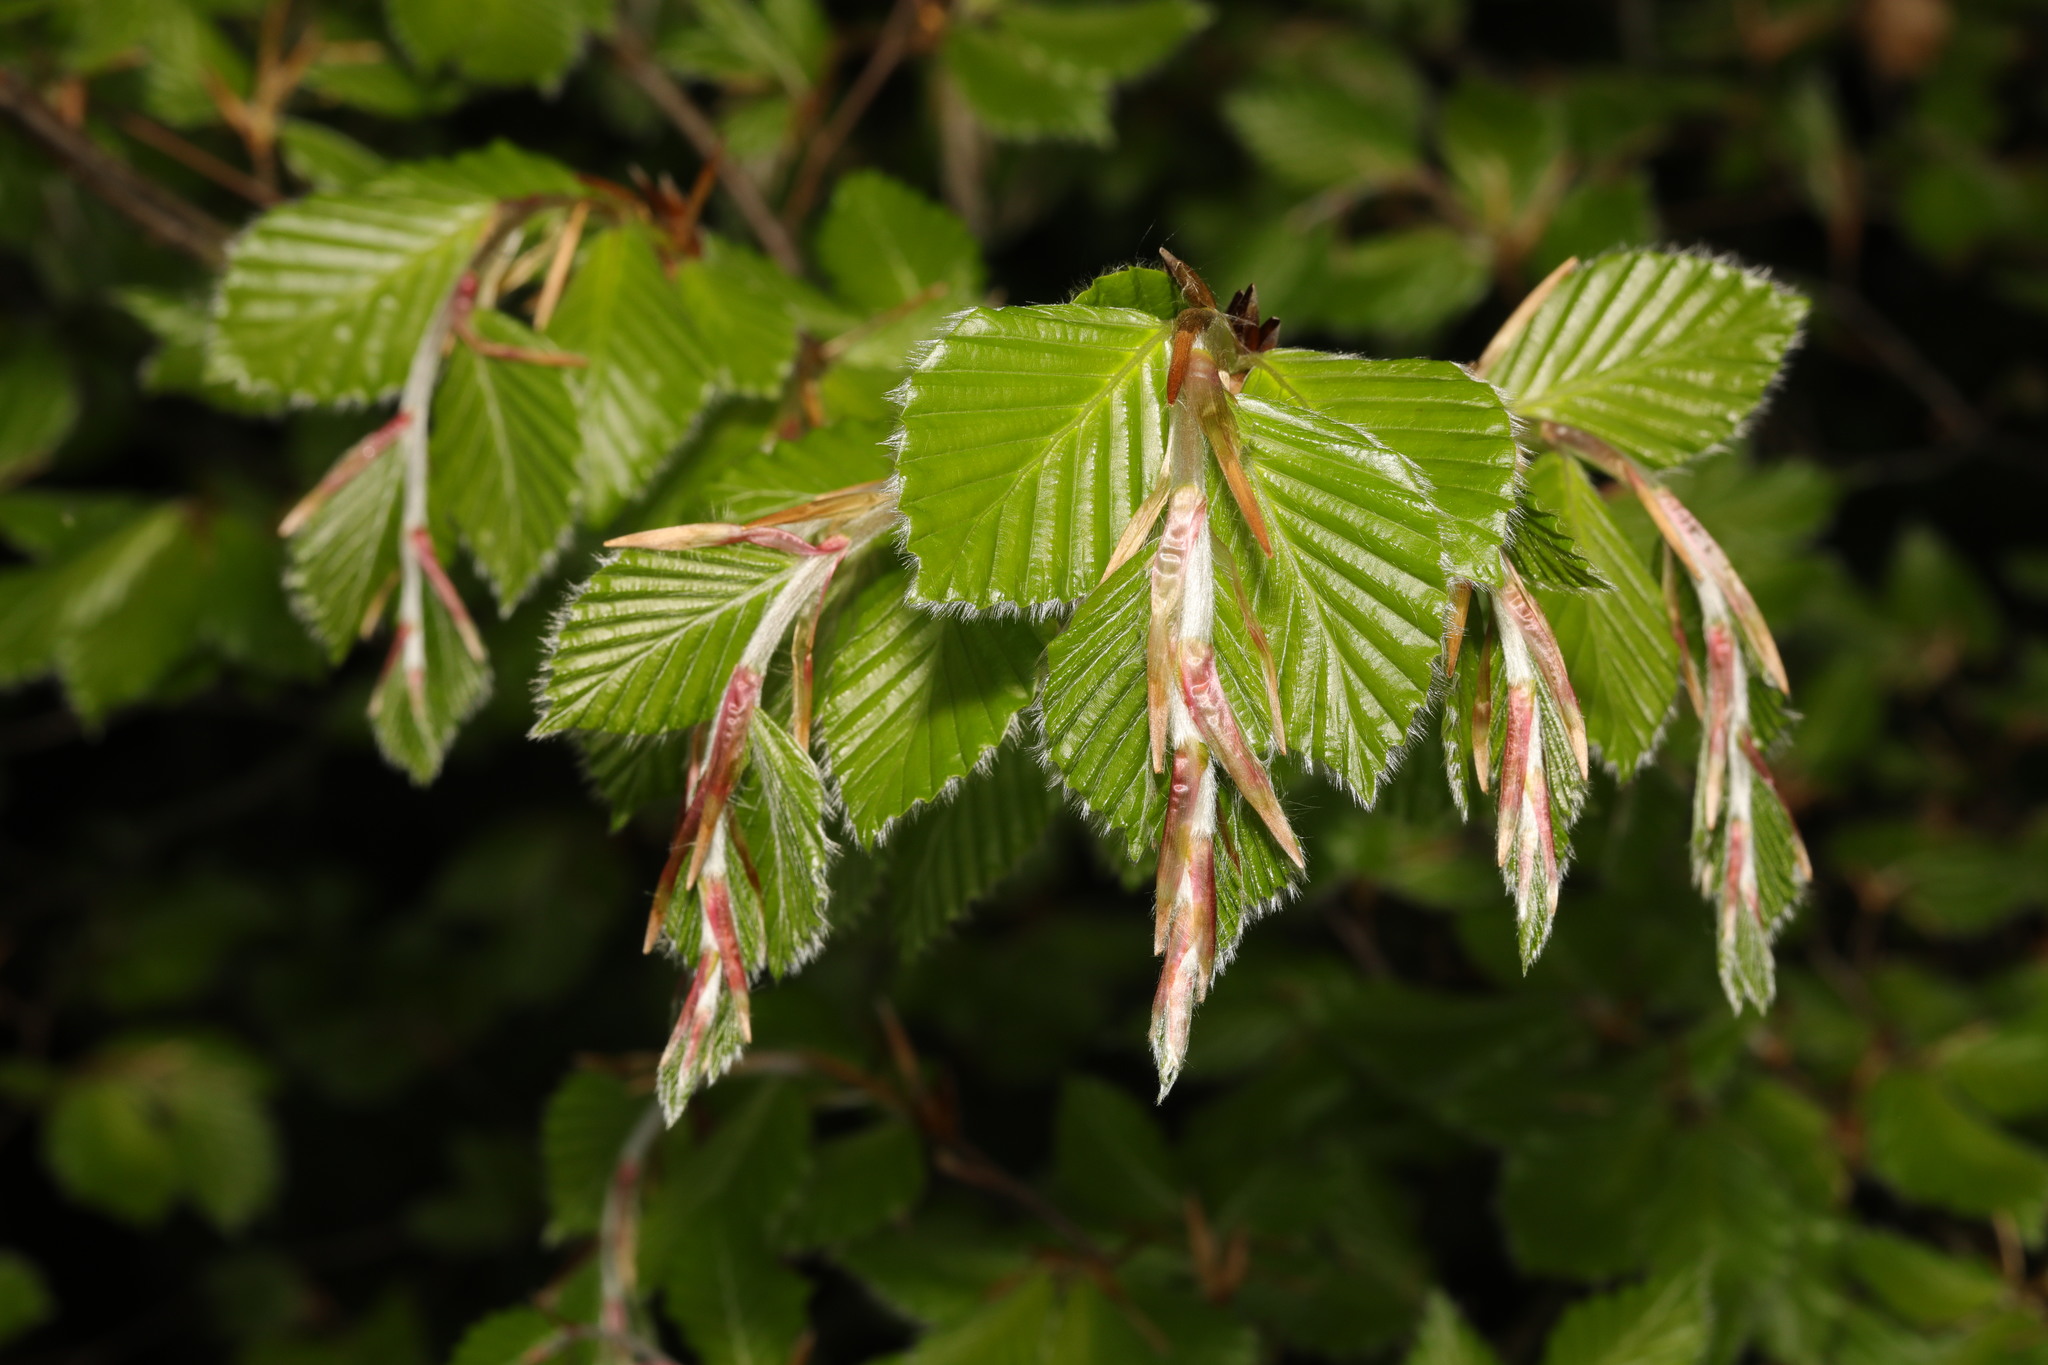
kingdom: Plantae
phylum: Tracheophyta
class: Magnoliopsida
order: Fagales
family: Fagaceae
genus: Fagus
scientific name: Fagus sylvatica
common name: Beech
